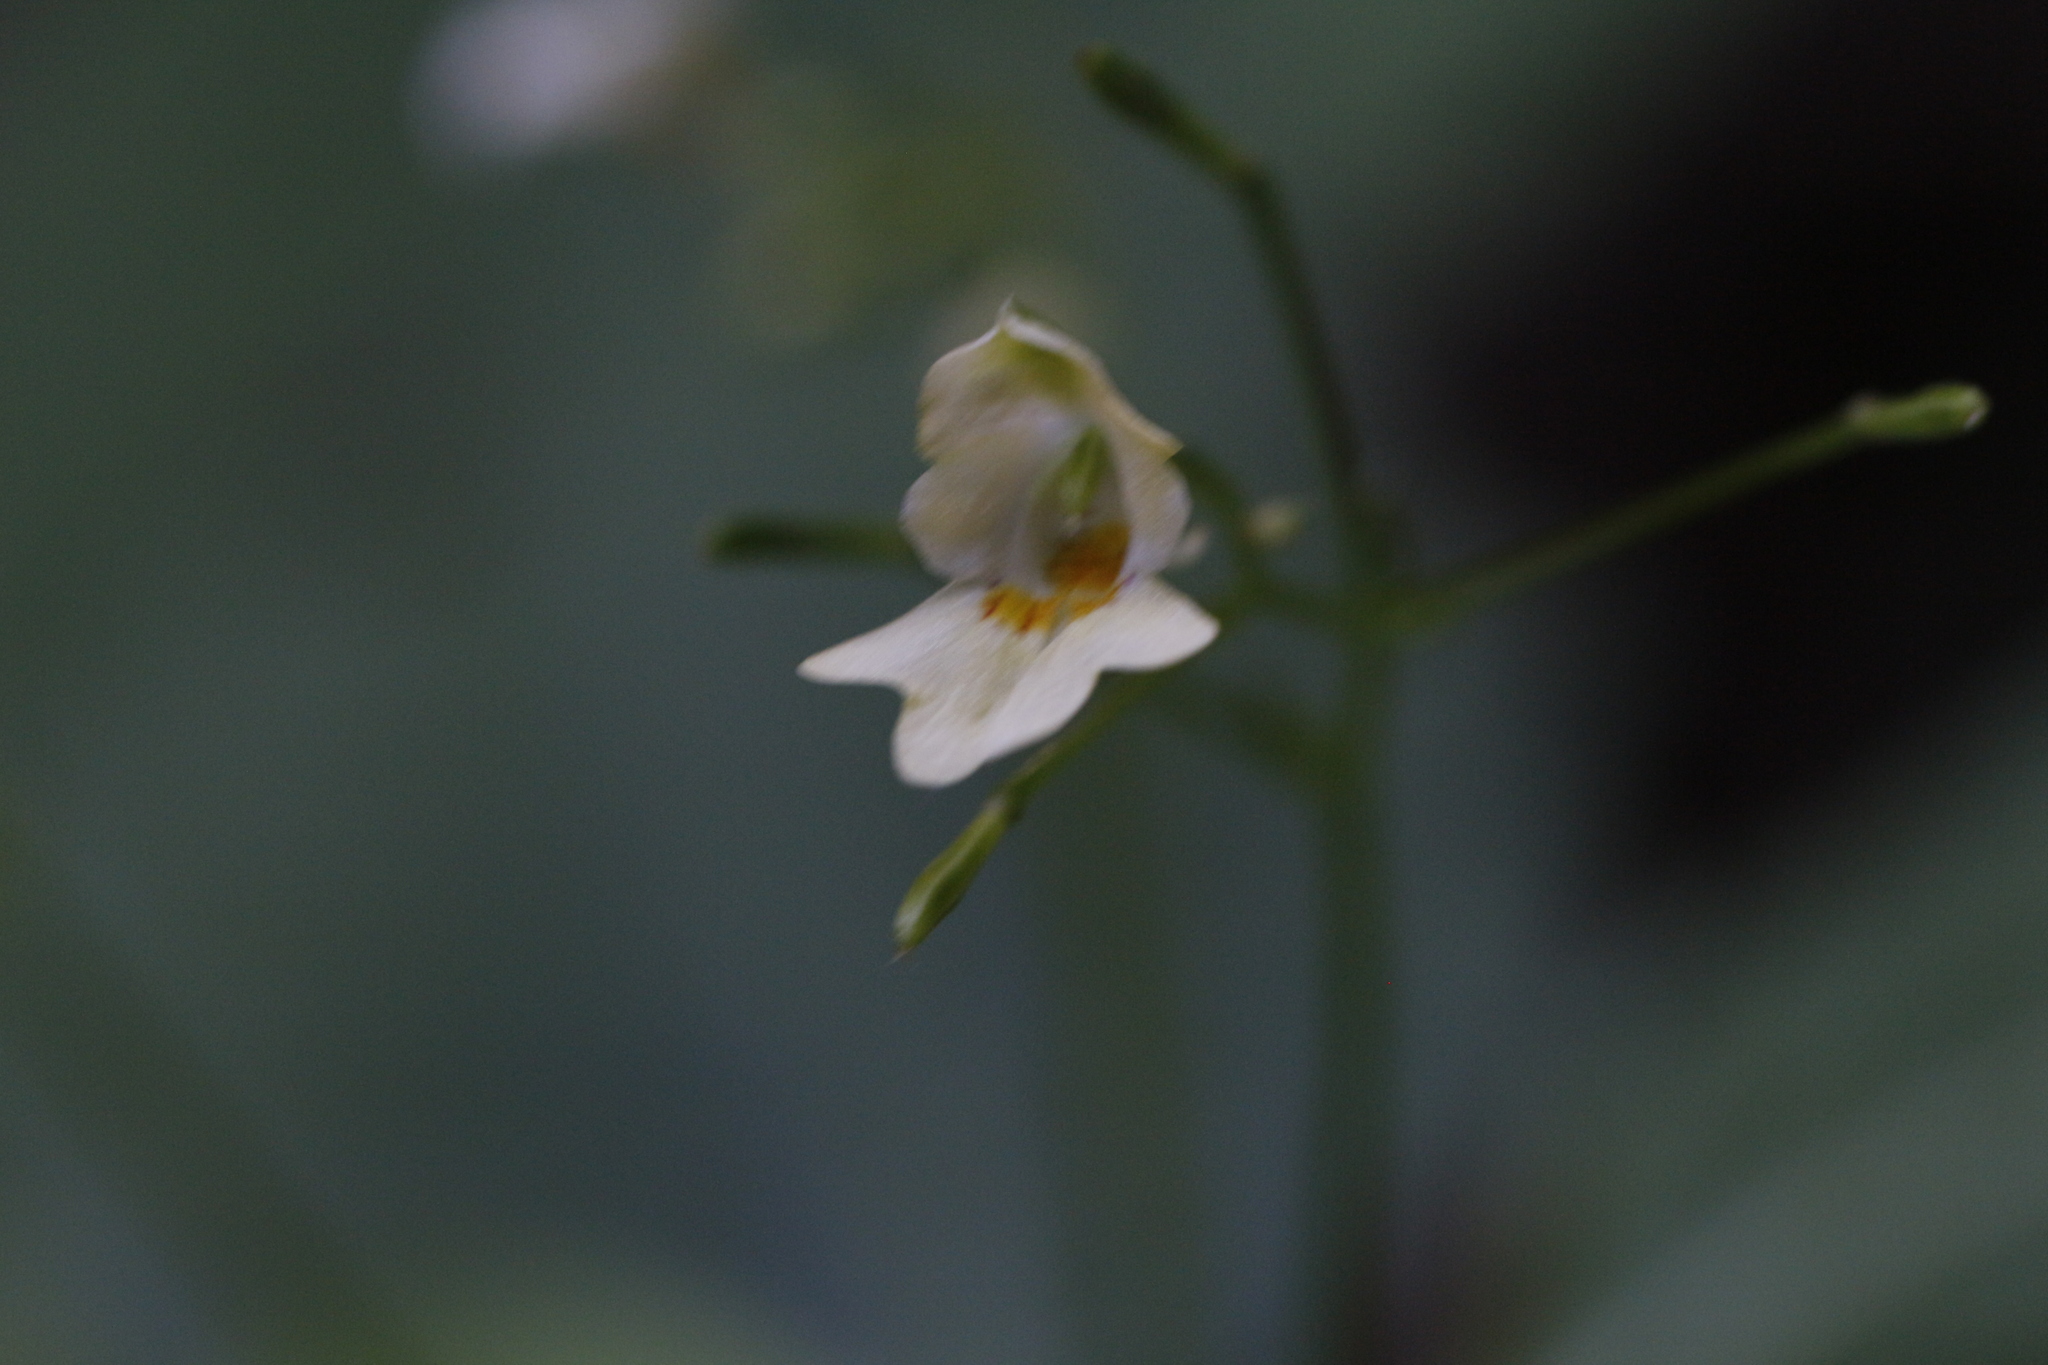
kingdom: Plantae
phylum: Tracheophyta
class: Magnoliopsida
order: Ericales
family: Balsaminaceae
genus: Impatiens
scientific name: Impatiens parviflora
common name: Small balsam
